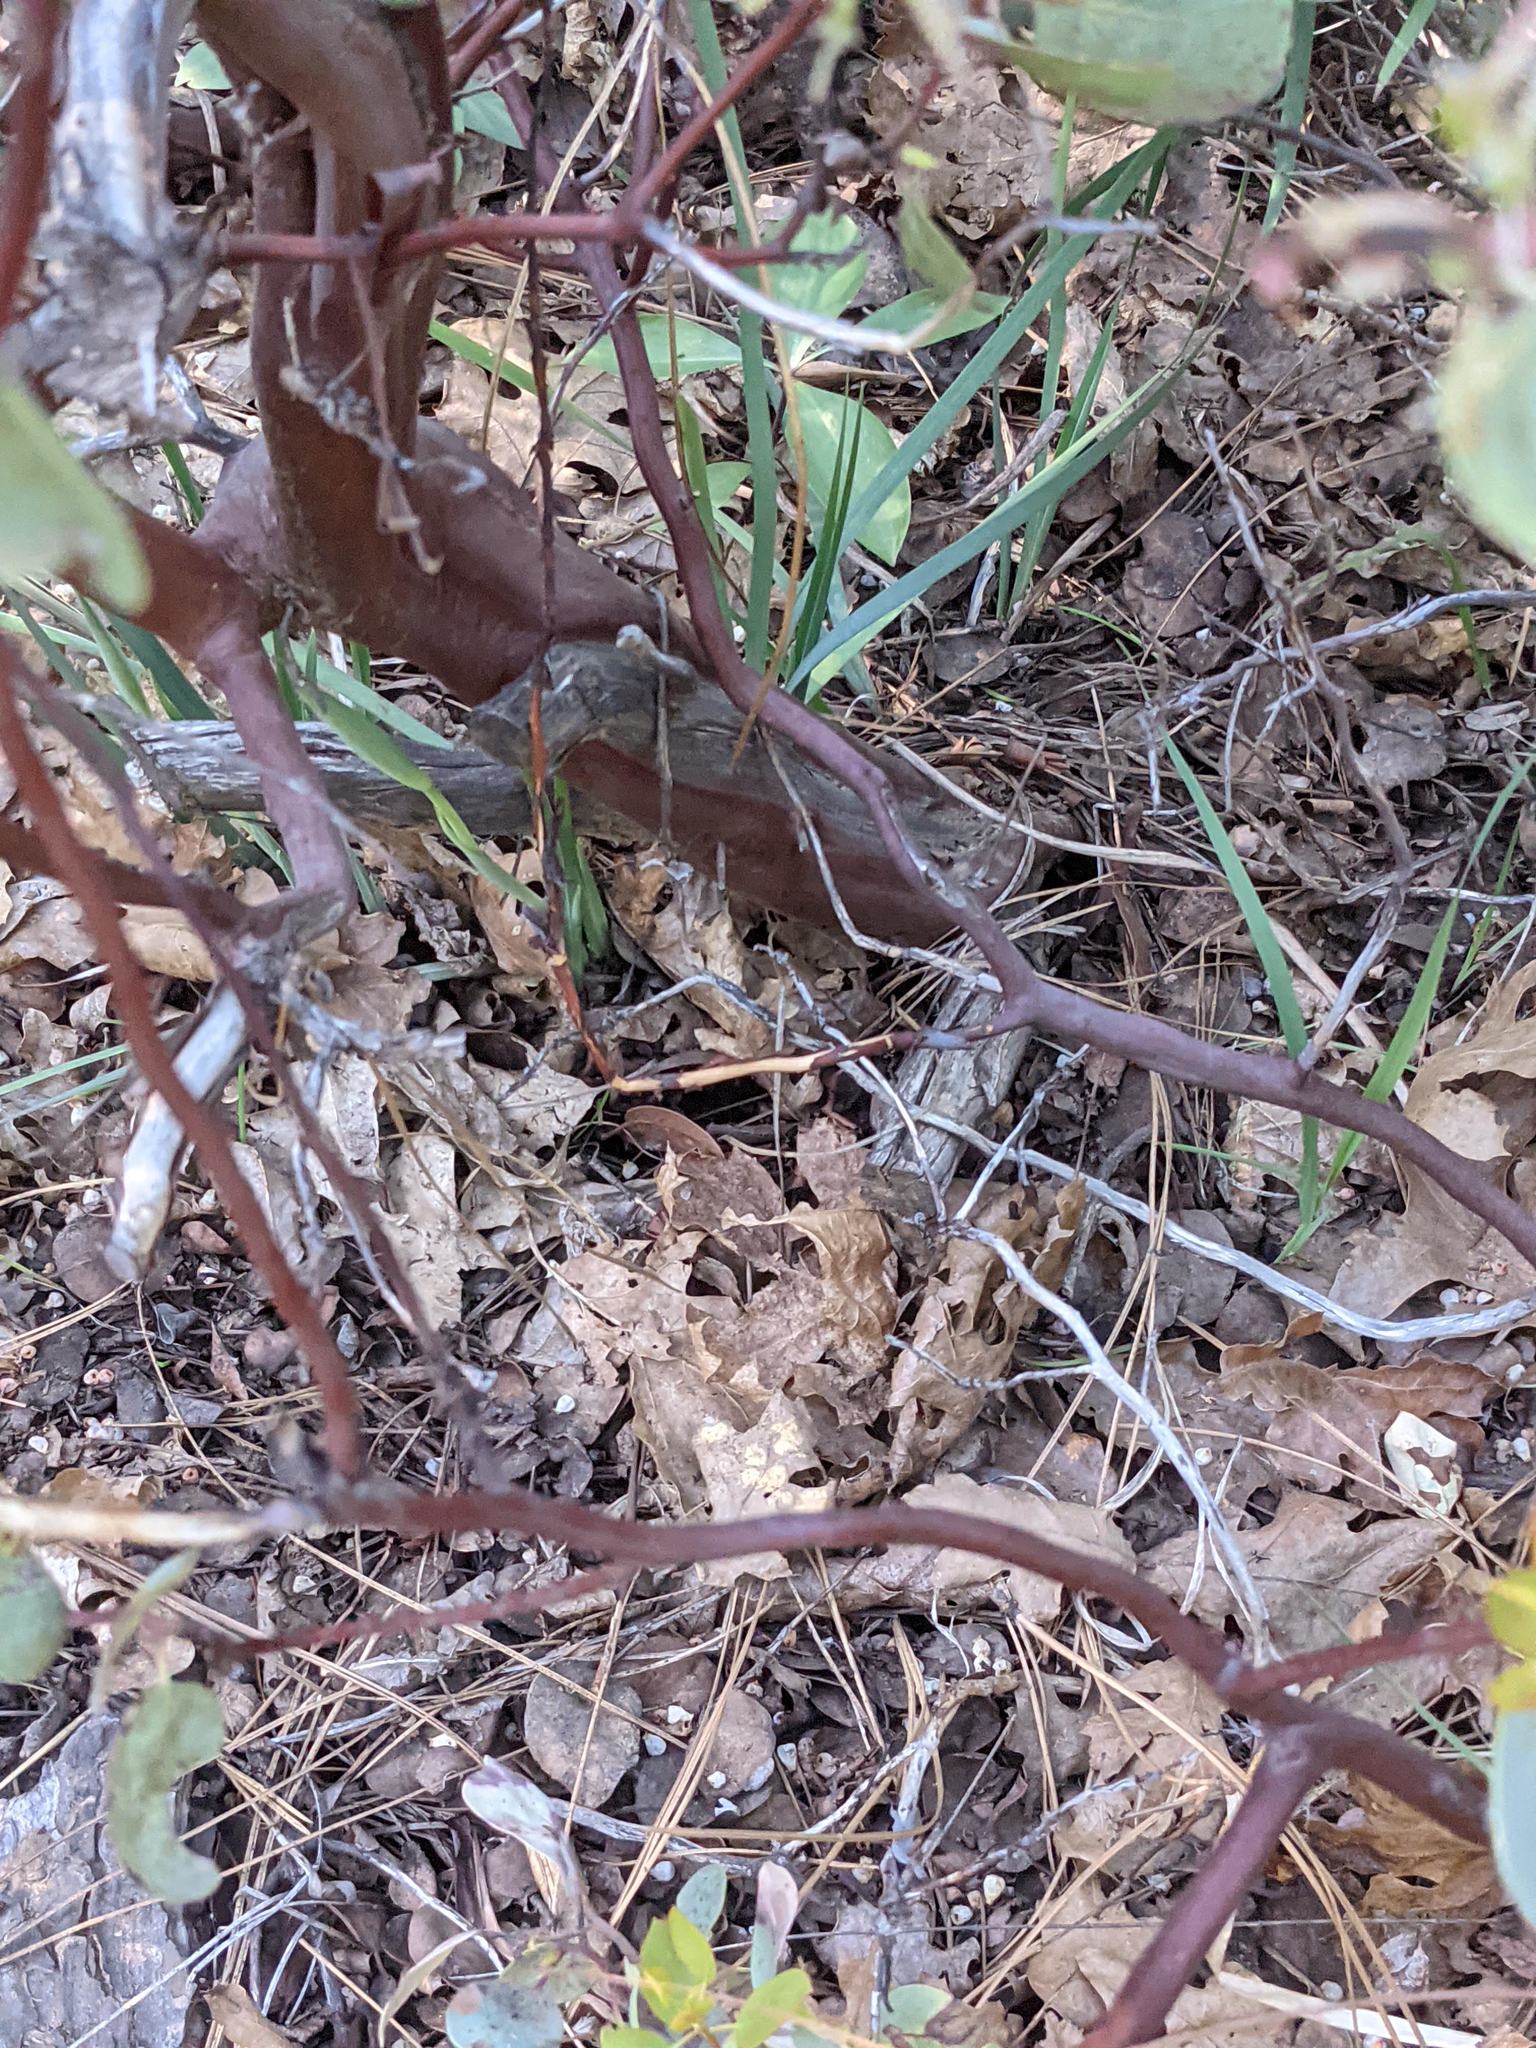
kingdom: Plantae
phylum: Tracheophyta
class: Magnoliopsida
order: Ericales
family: Ericaceae
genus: Arctostaphylos
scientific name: Arctostaphylos viscida
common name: White-leaf manzanita
